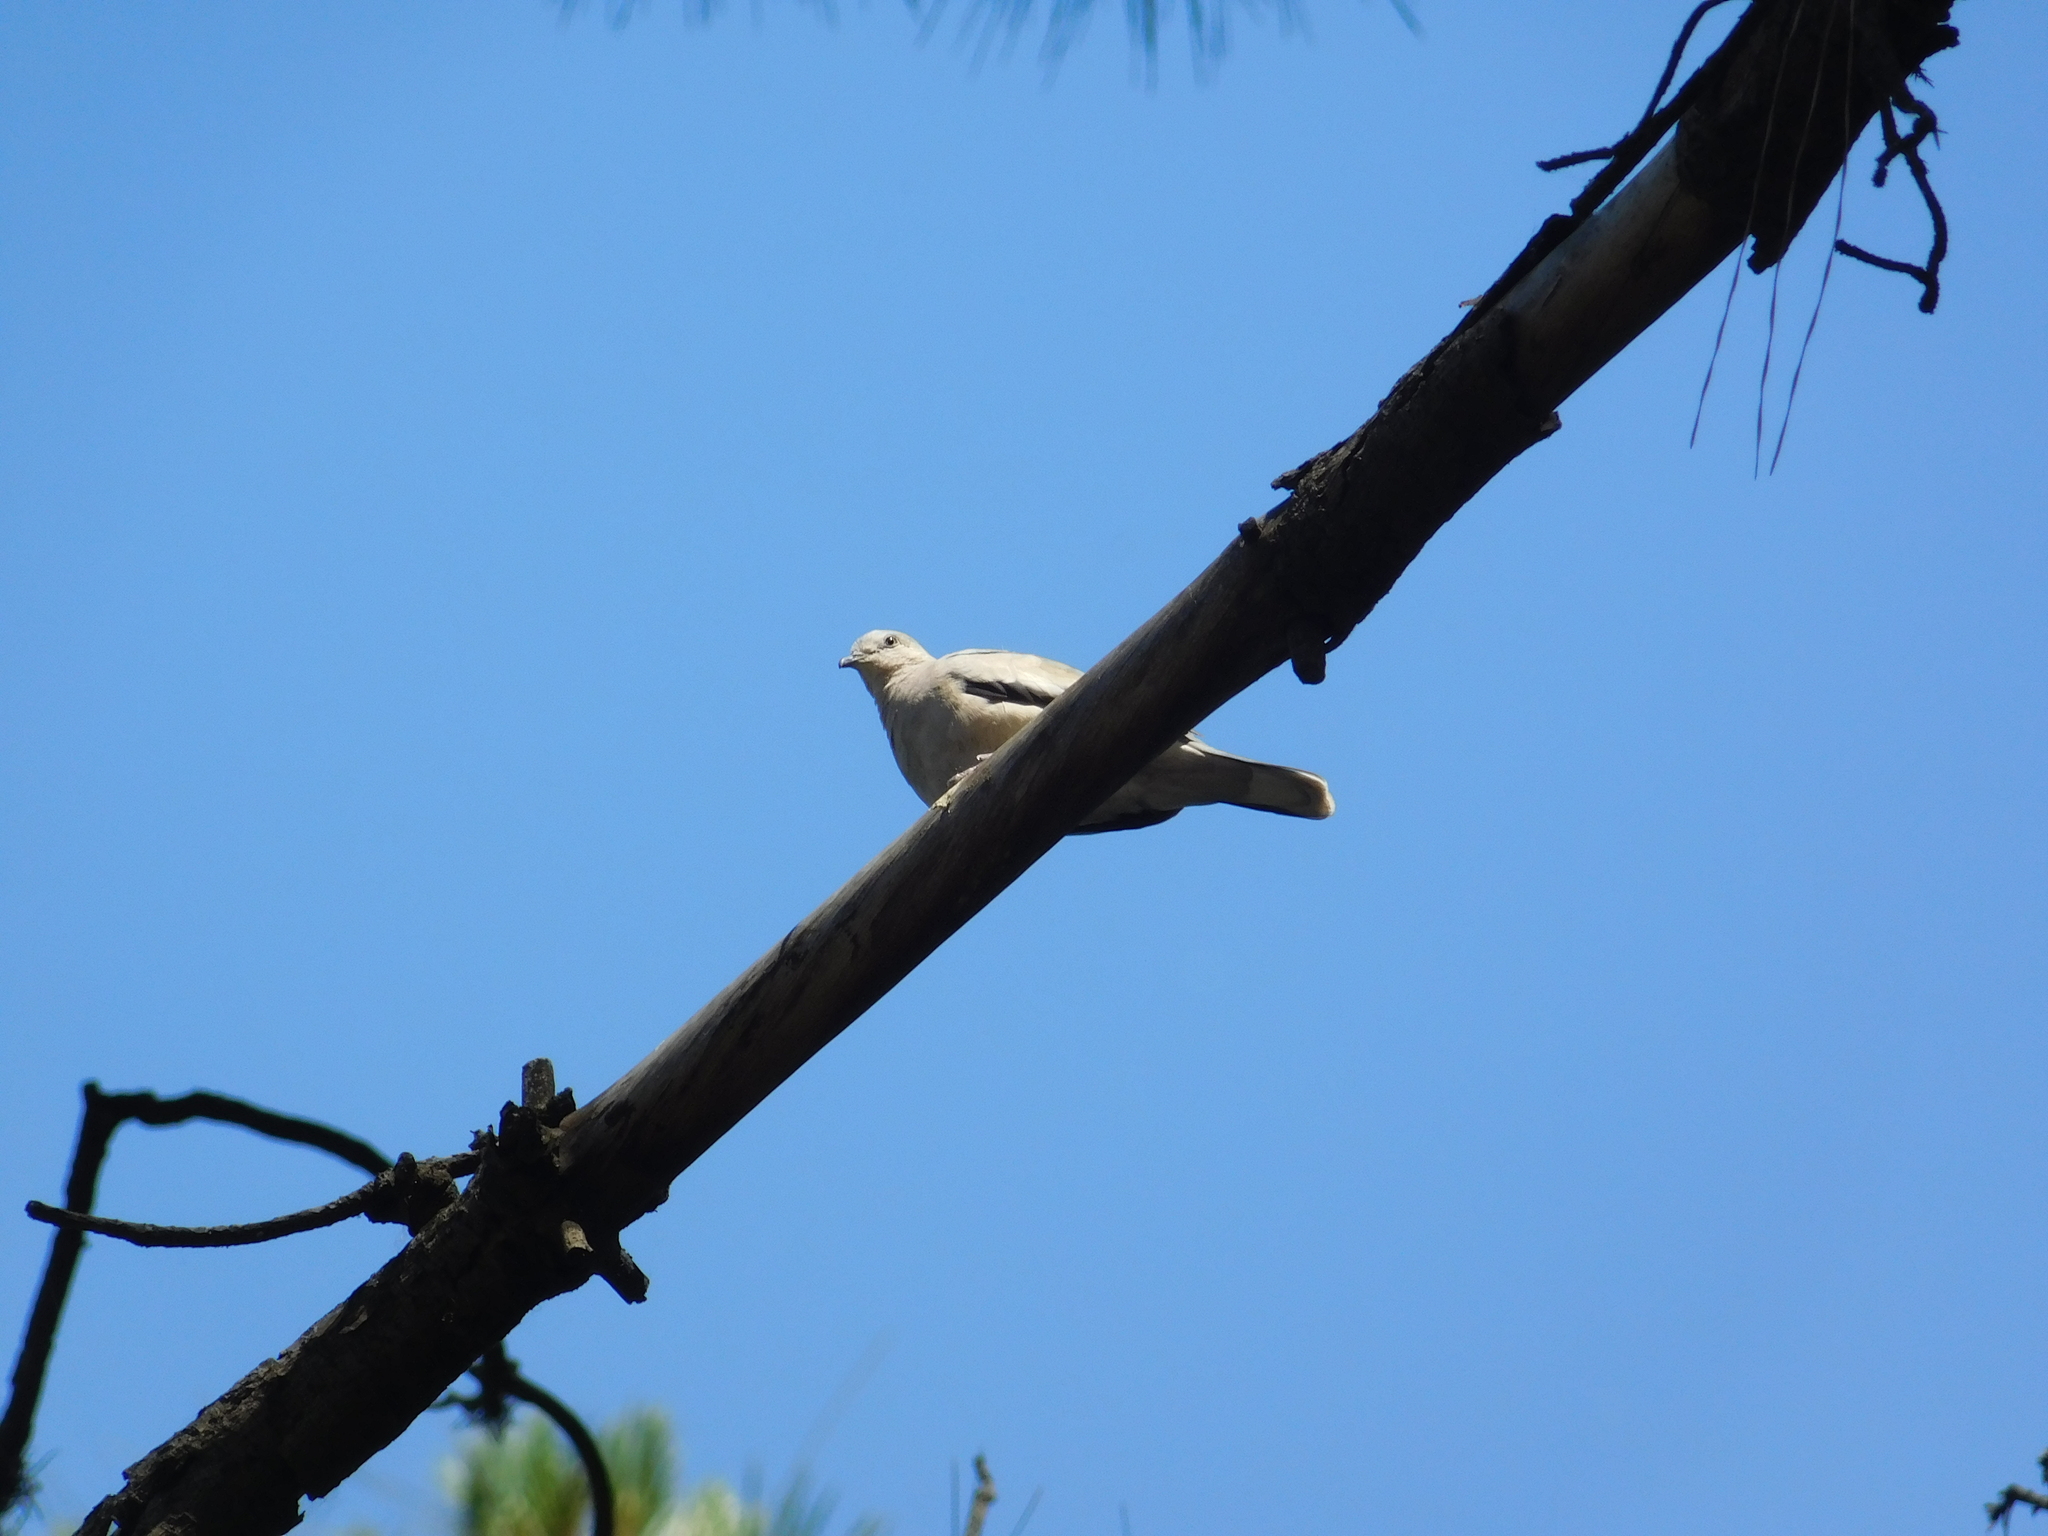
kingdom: Animalia
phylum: Chordata
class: Aves
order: Columbiformes
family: Columbidae
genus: Columbina
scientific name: Columbina picui
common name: Picui ground dove
